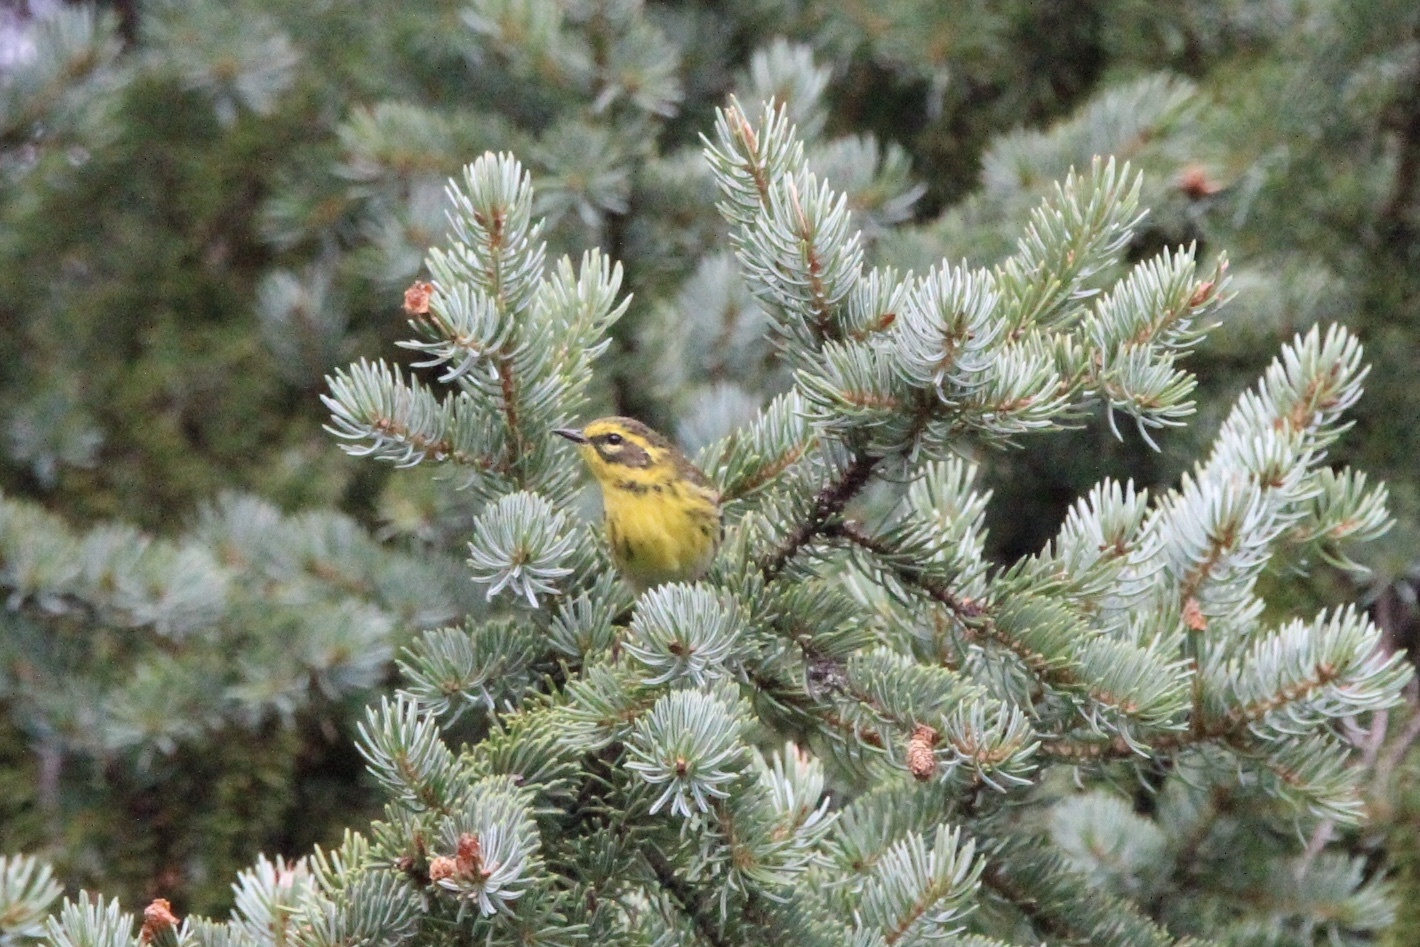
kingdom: Animalia
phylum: Chordata
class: Aves
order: Passeriformes
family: Parulidae
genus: Setophaga
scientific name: Setophaga townsendi
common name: Townsend's warbler
